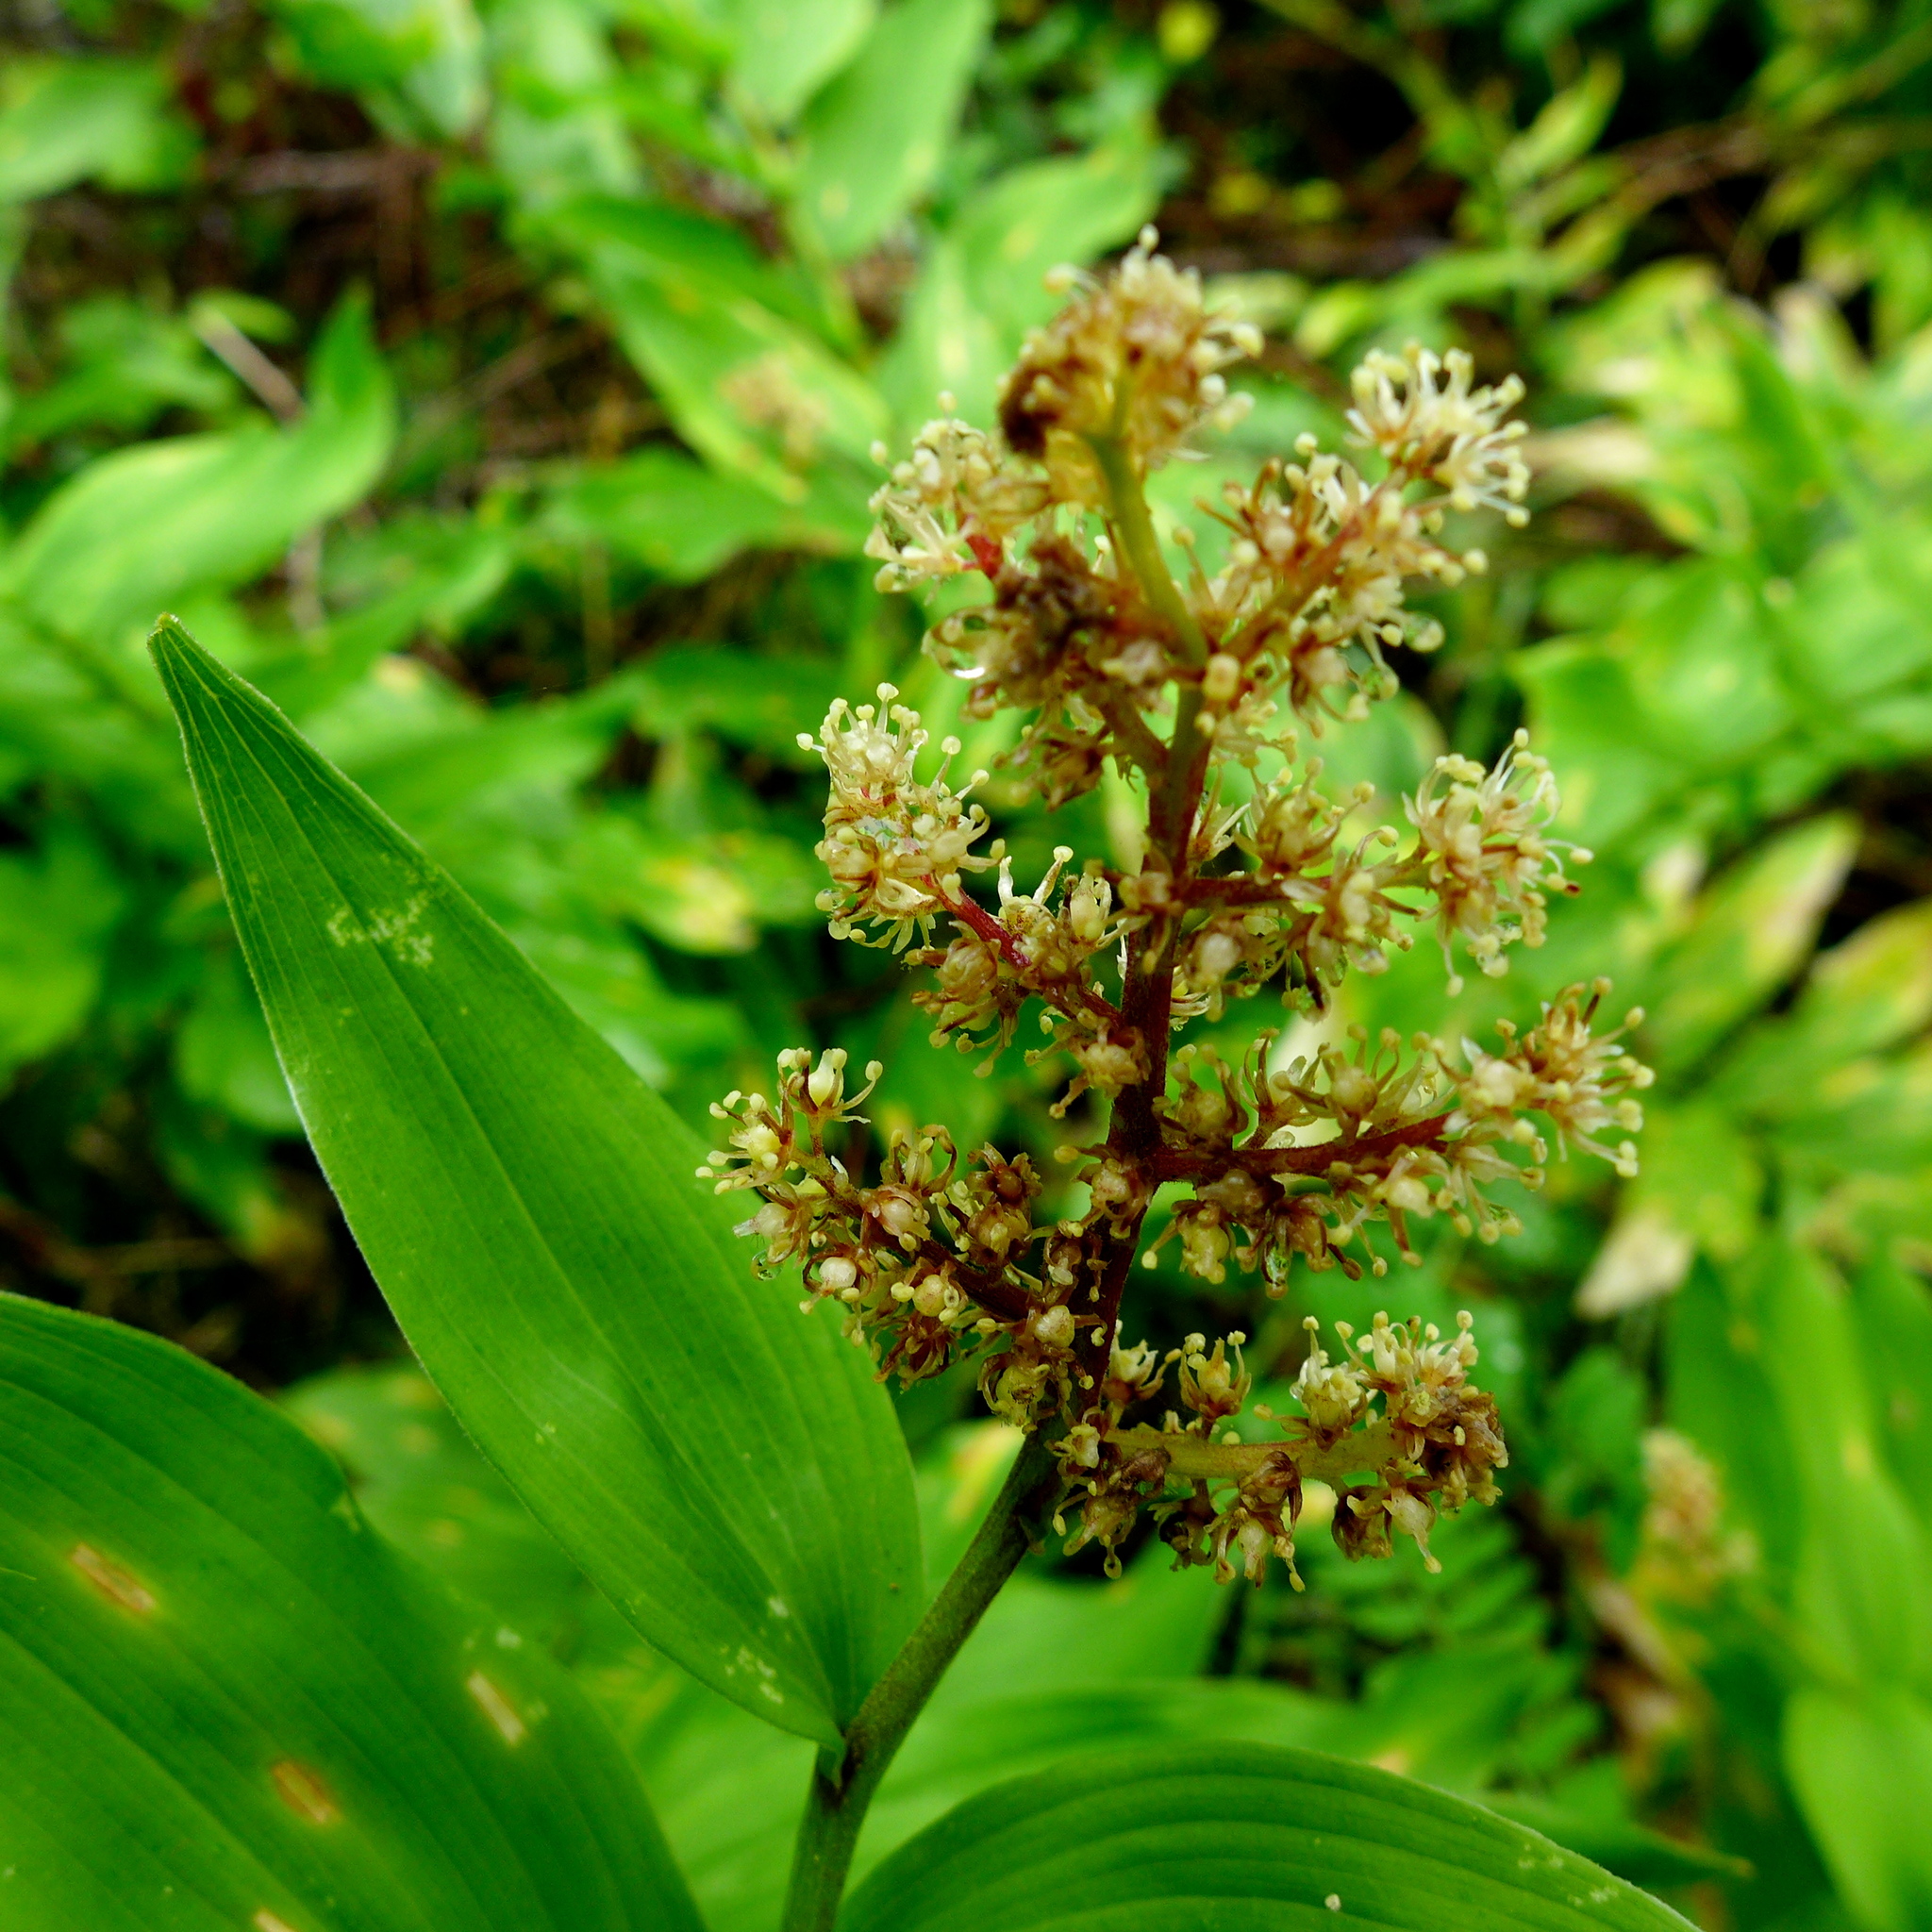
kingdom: Plantae
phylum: Tracheophyta
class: Liliopsida
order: Asparagales
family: Asparagaceae
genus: Maianthemum
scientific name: Maianthemum racemosum
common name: False spikenard
